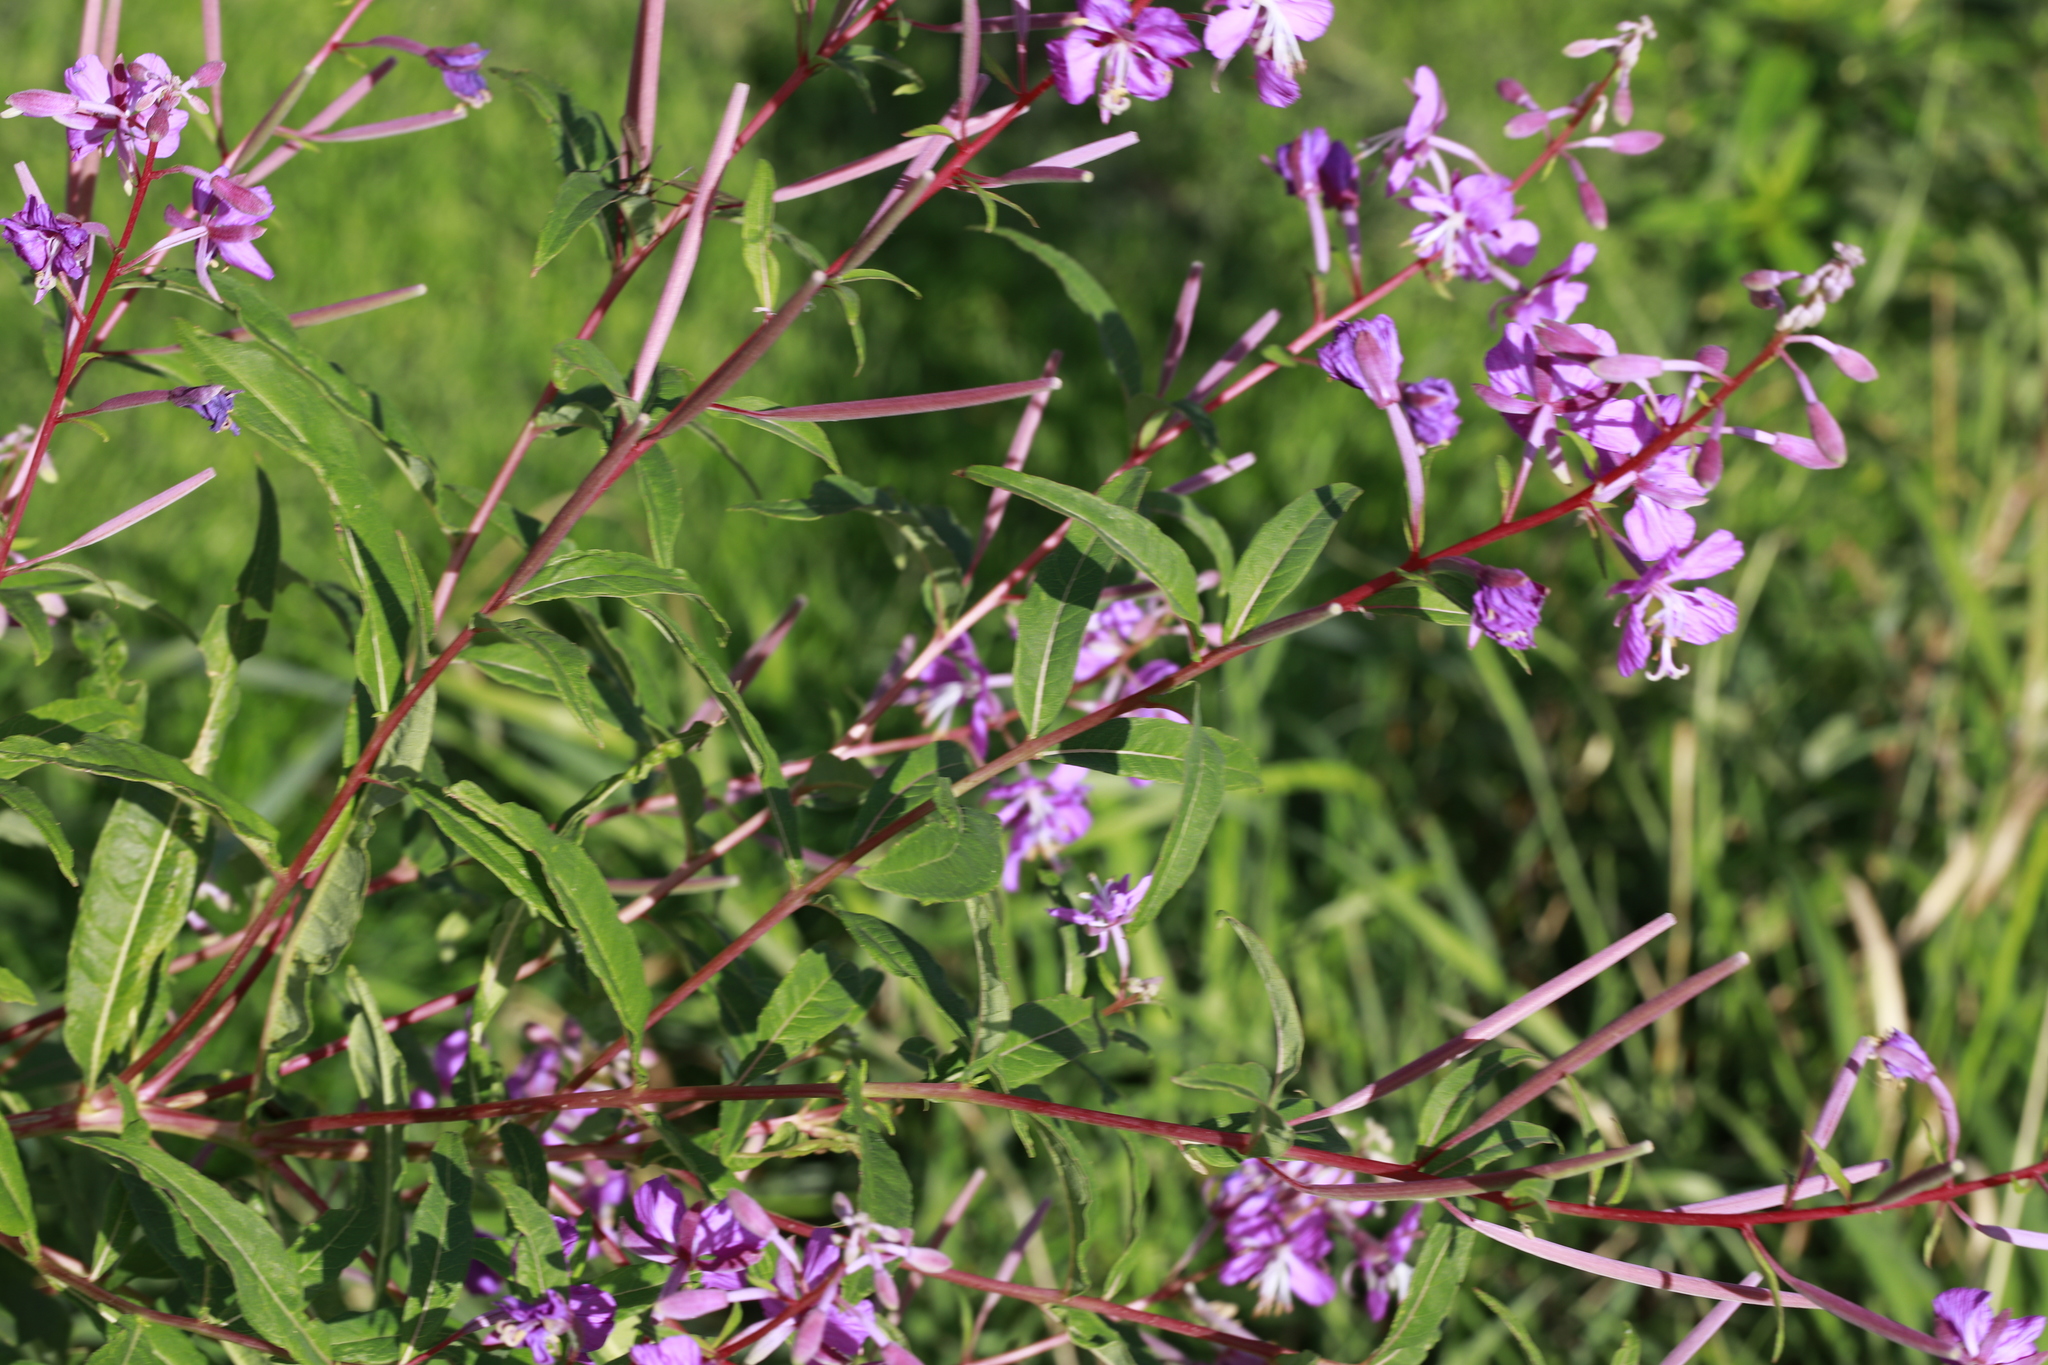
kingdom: Plantae
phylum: Tracheophyta
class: Magnoliopsida
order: Myrtales
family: Onagraceae
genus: Chamaenerion
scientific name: Chamaenerion angustifolium
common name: Fireweed
